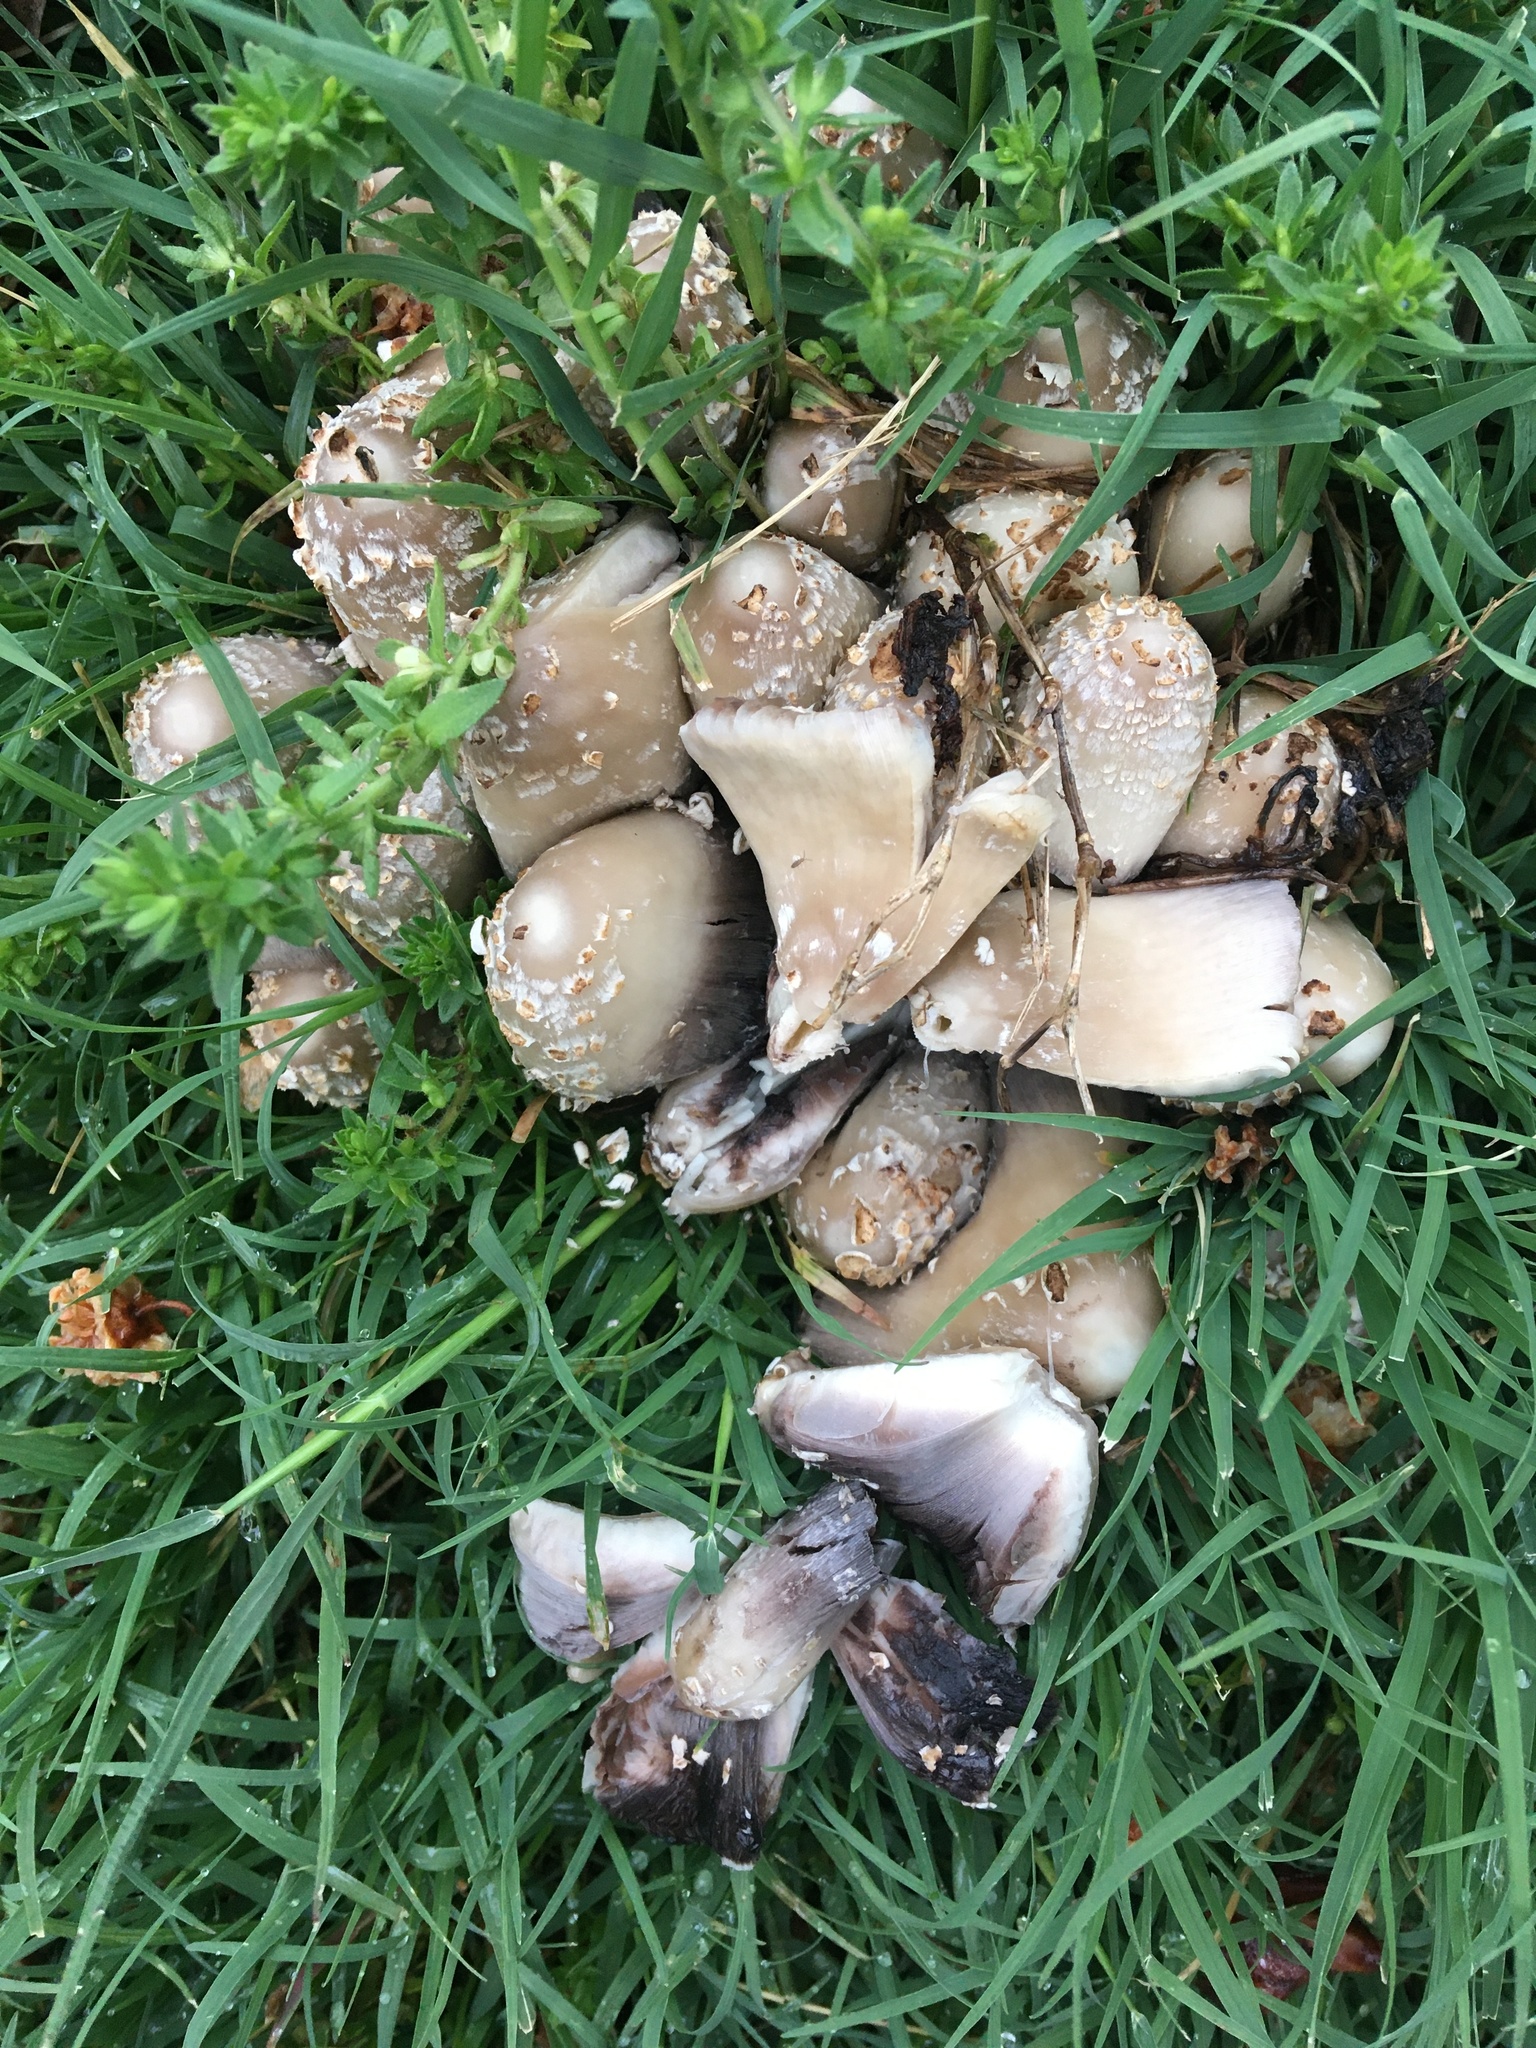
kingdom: Fungi
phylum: Basidiomycota
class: Agaricomycetes
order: Agaricales
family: Psathyrellaceae
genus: Coprinopsis
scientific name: Coprinopsis variegata
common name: Scaly ink cap
